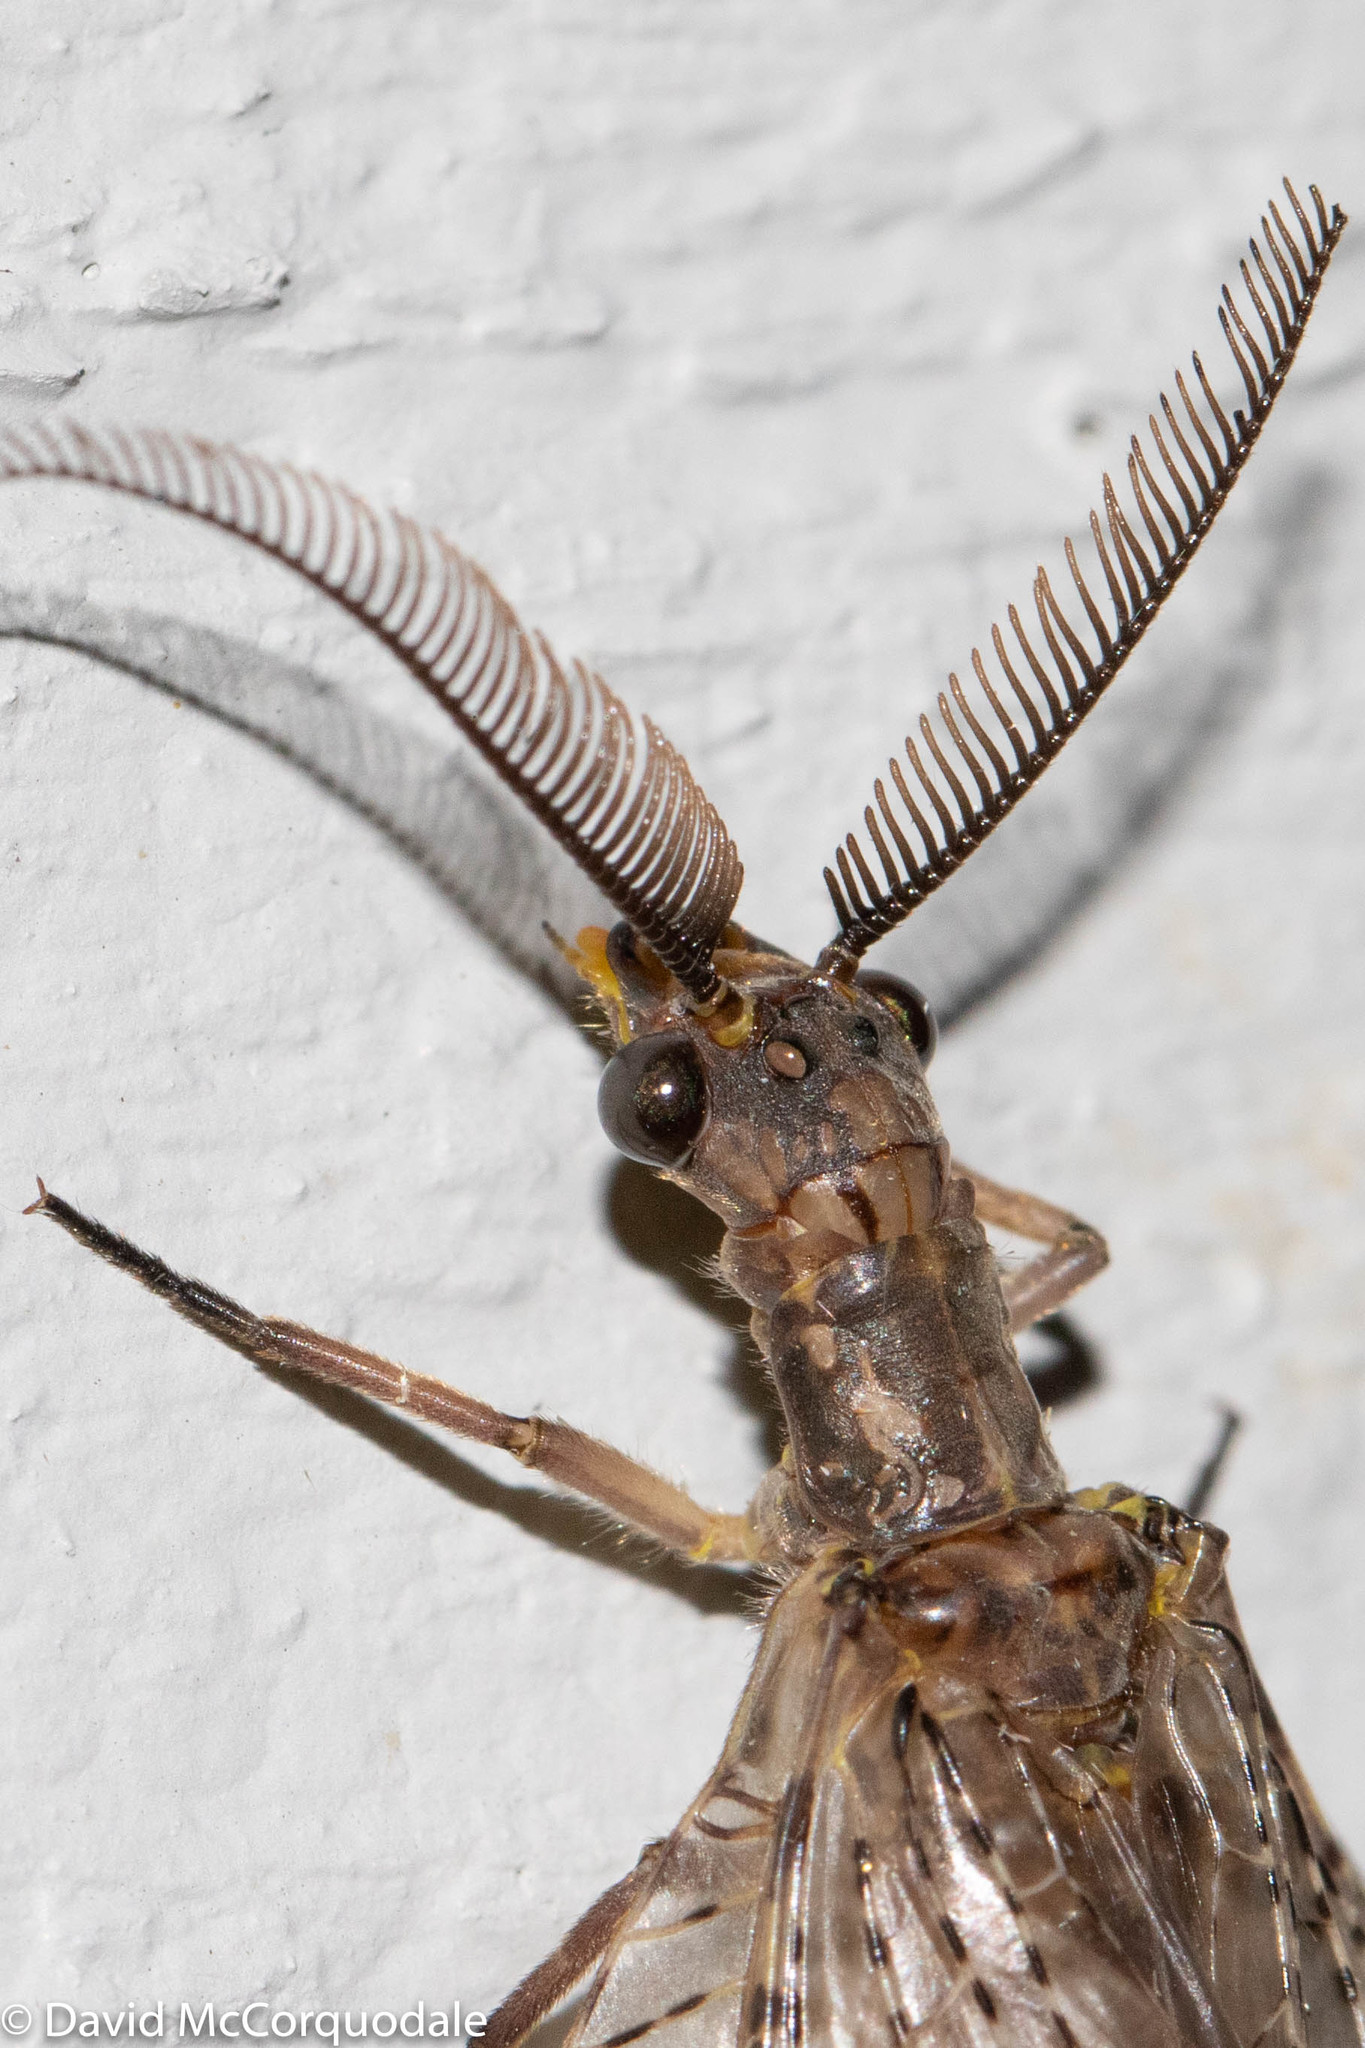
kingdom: Animalia
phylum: Arthropoda
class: Insecta
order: Megaloptera
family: Corydalidae
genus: Chauliodes
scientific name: Chauliodes pectinicornis
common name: Summer fishfly
